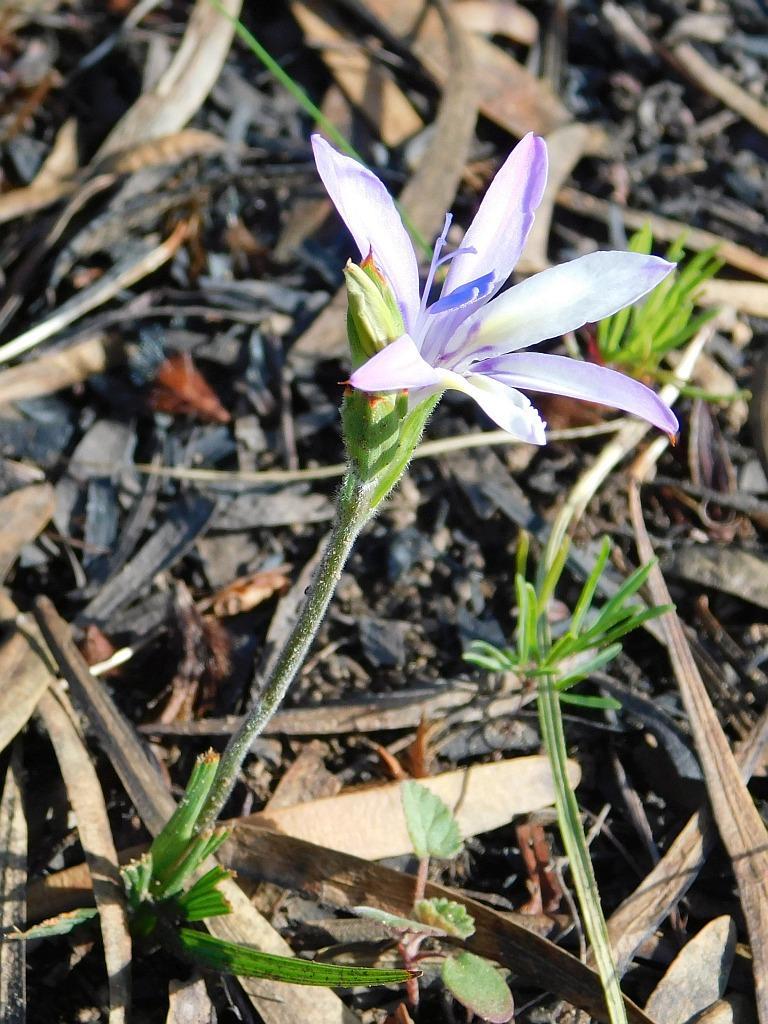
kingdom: Plantae
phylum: Tracheophyta
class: Liliopsida
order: Asparagales
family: Iridaceae
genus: Babiana
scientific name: Babiana nervosa
